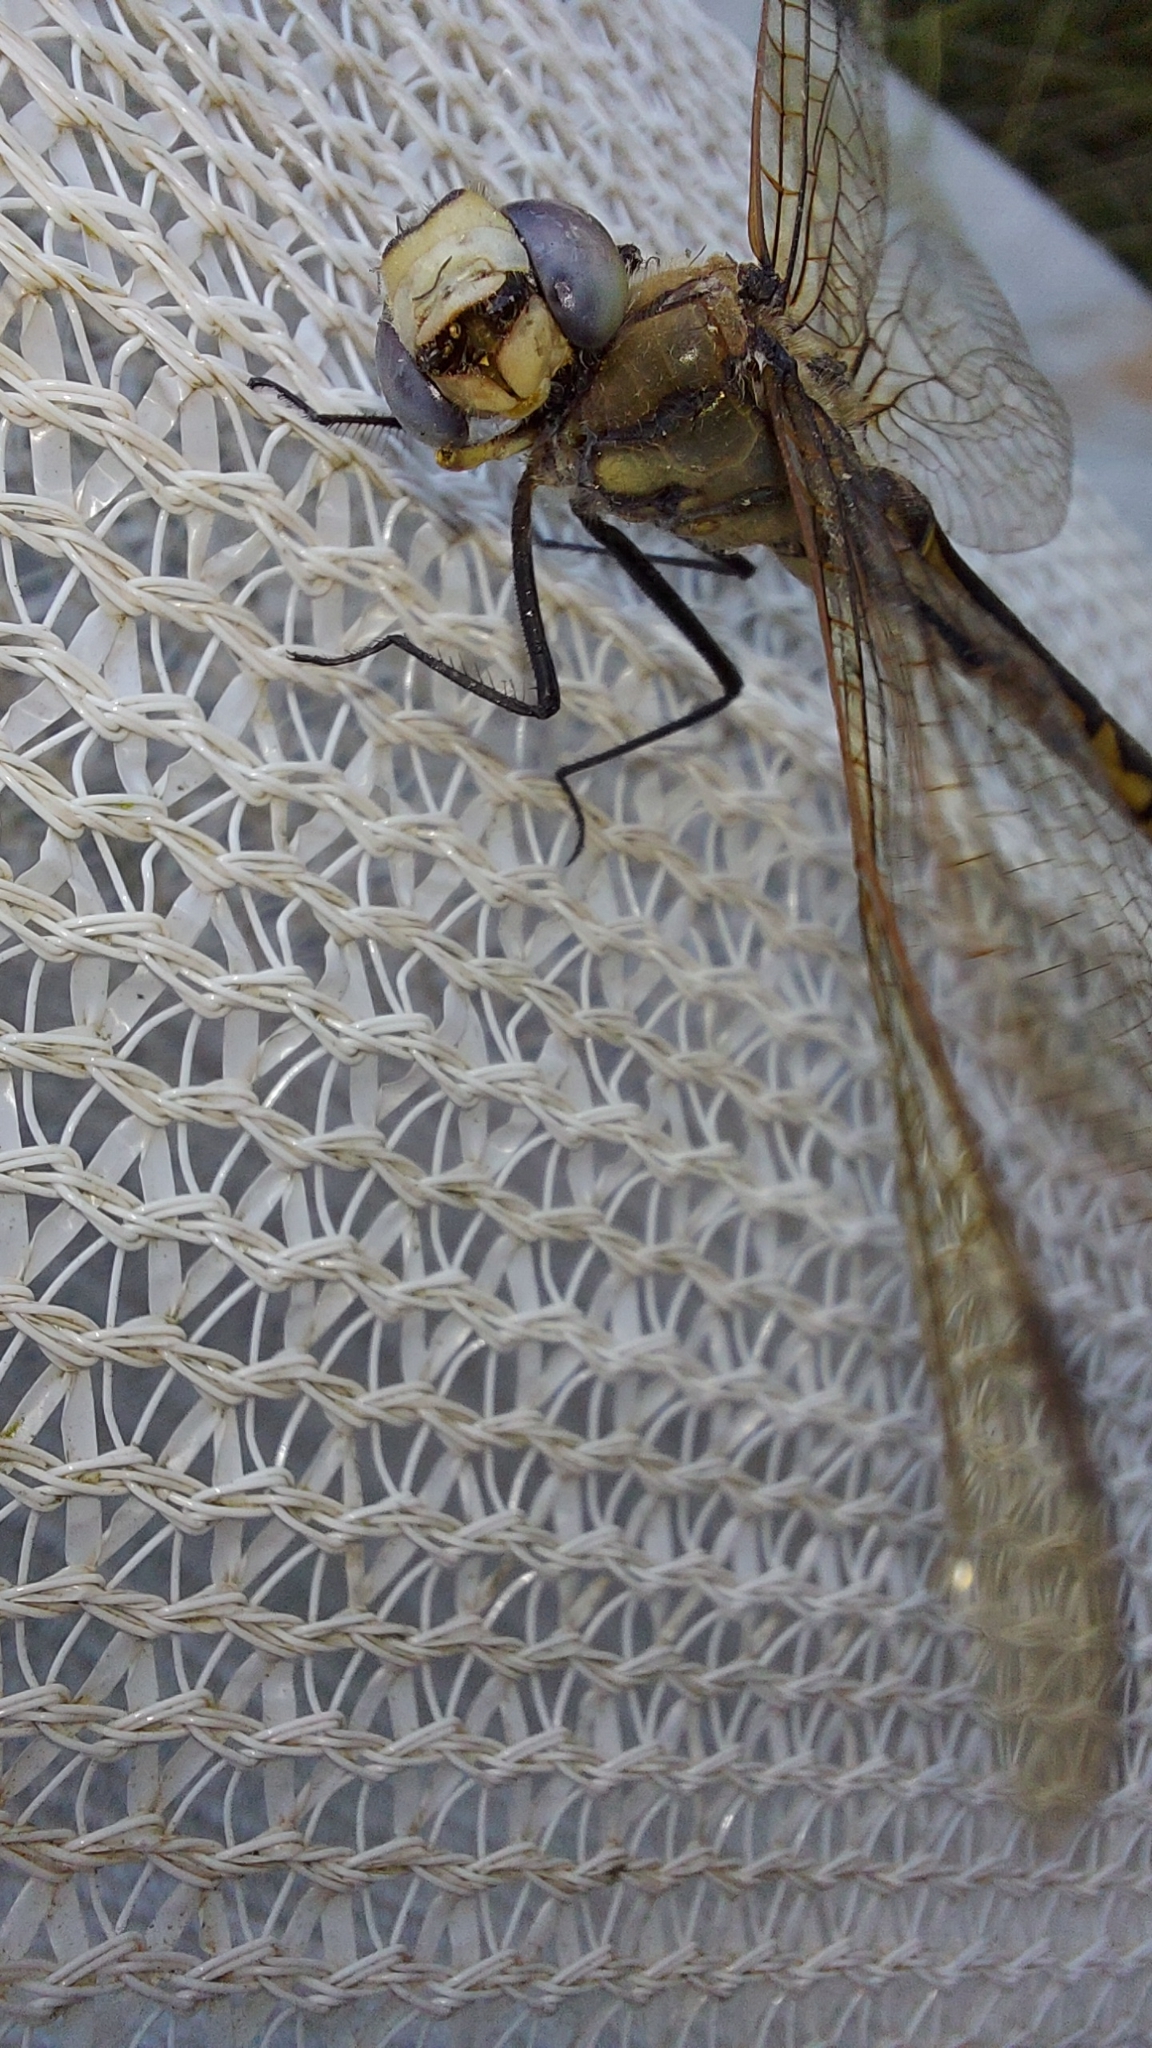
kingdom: Animalia
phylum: Arthropoda
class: Insecta
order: Odonata
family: Corduliidae
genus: Hemicordulia
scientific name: Hemicordulia tau
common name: Tau emerald
